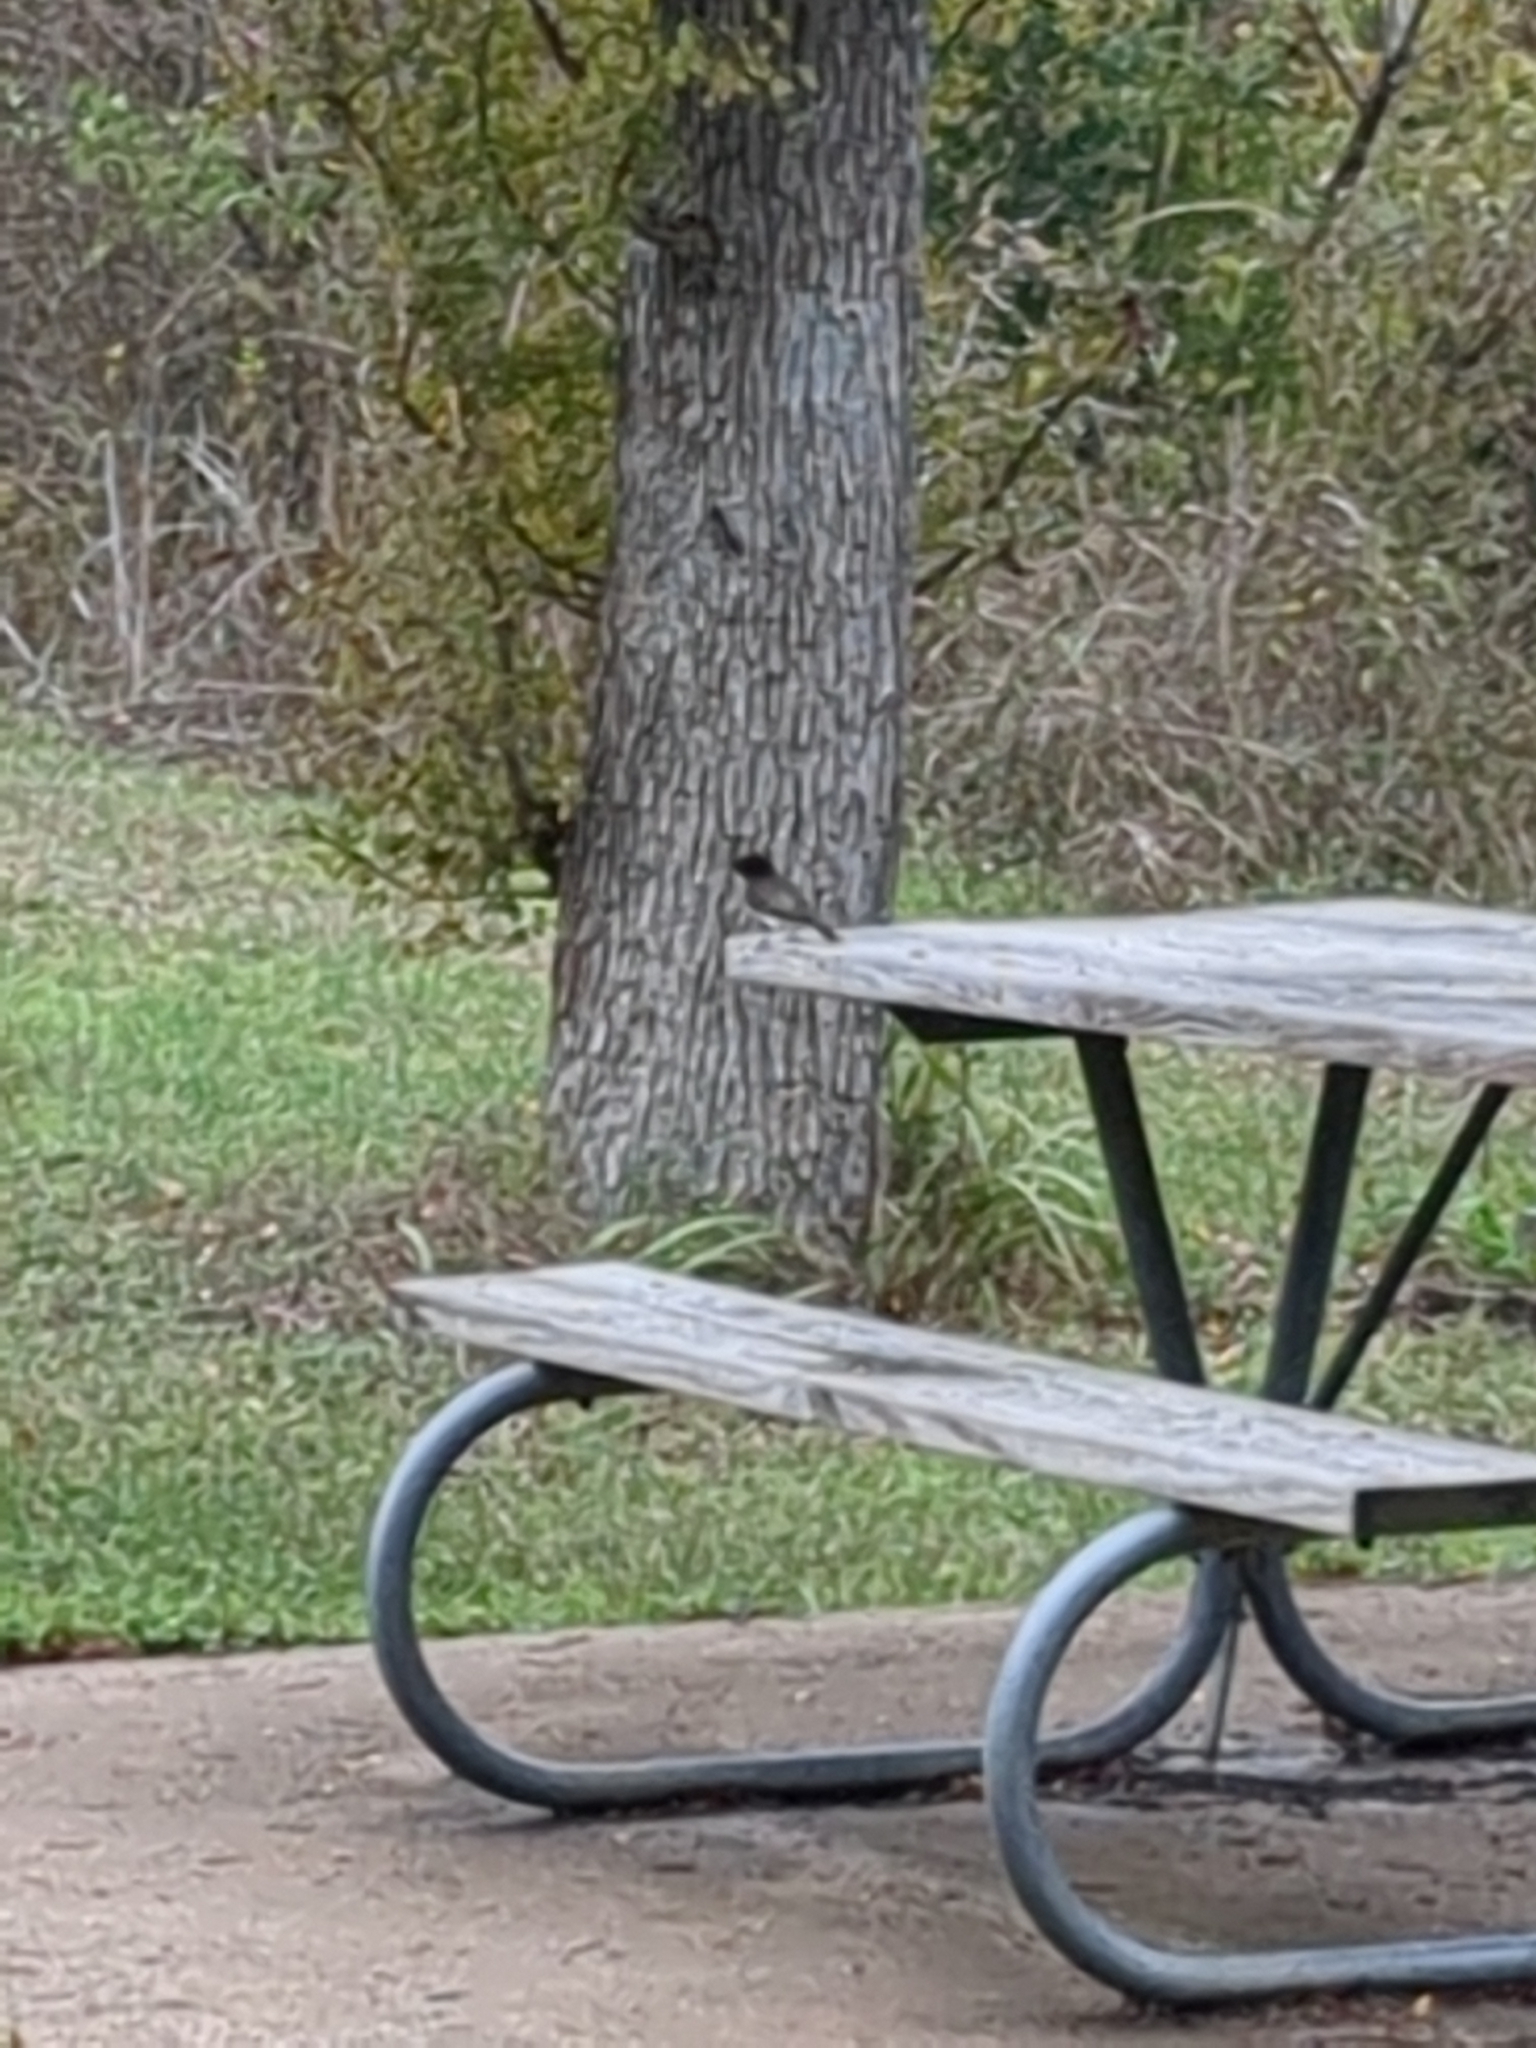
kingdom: Animalia
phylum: Chordata
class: Aves
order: Passeriformes
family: Tyrannidae
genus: Sayornis
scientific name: Sayornis phoebe
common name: Eastern phoebe
